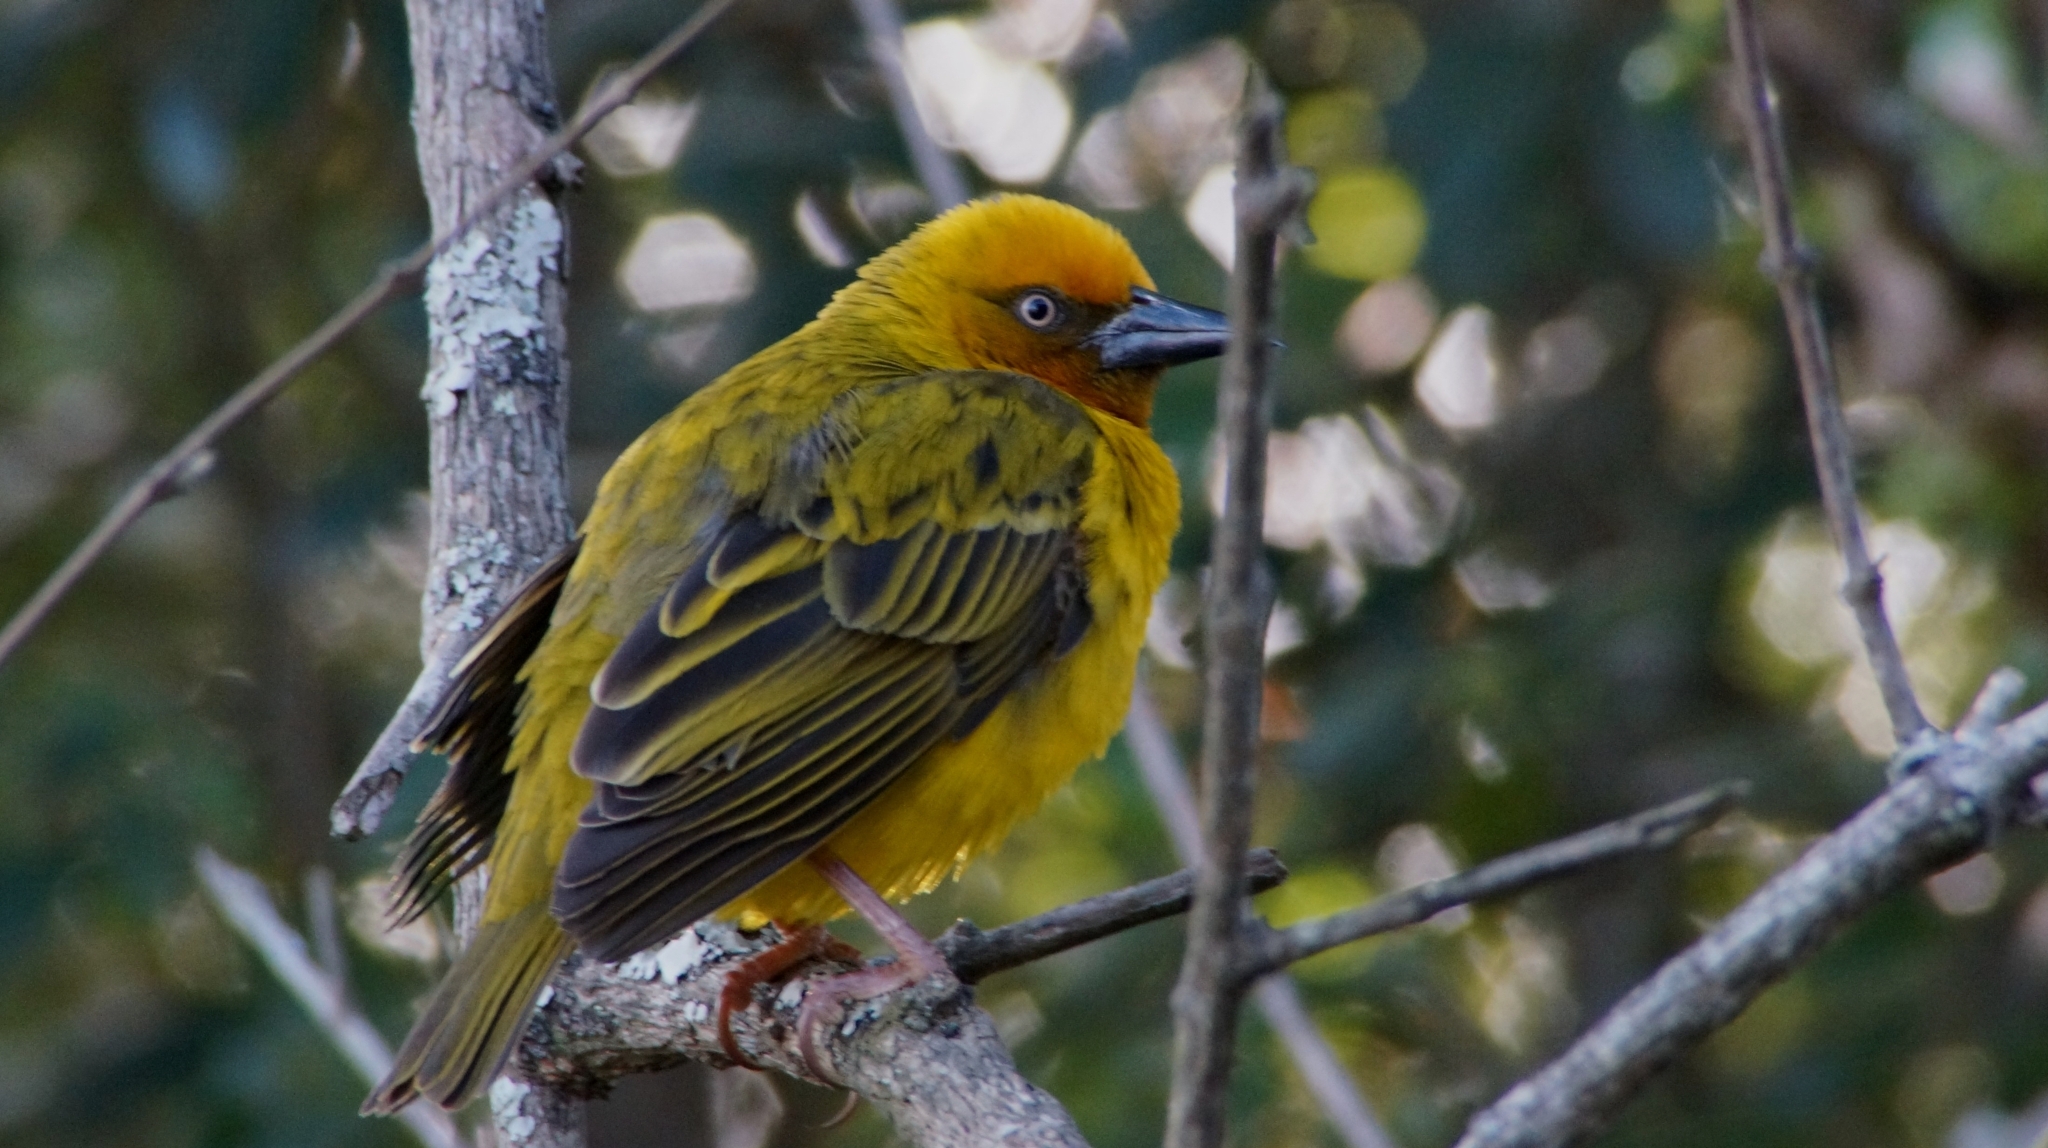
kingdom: Animalia
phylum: Chordata
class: Aves
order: Passeriformes
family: Ploceidae
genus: Ploceus
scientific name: Ploceus capensis
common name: Cape weaver
